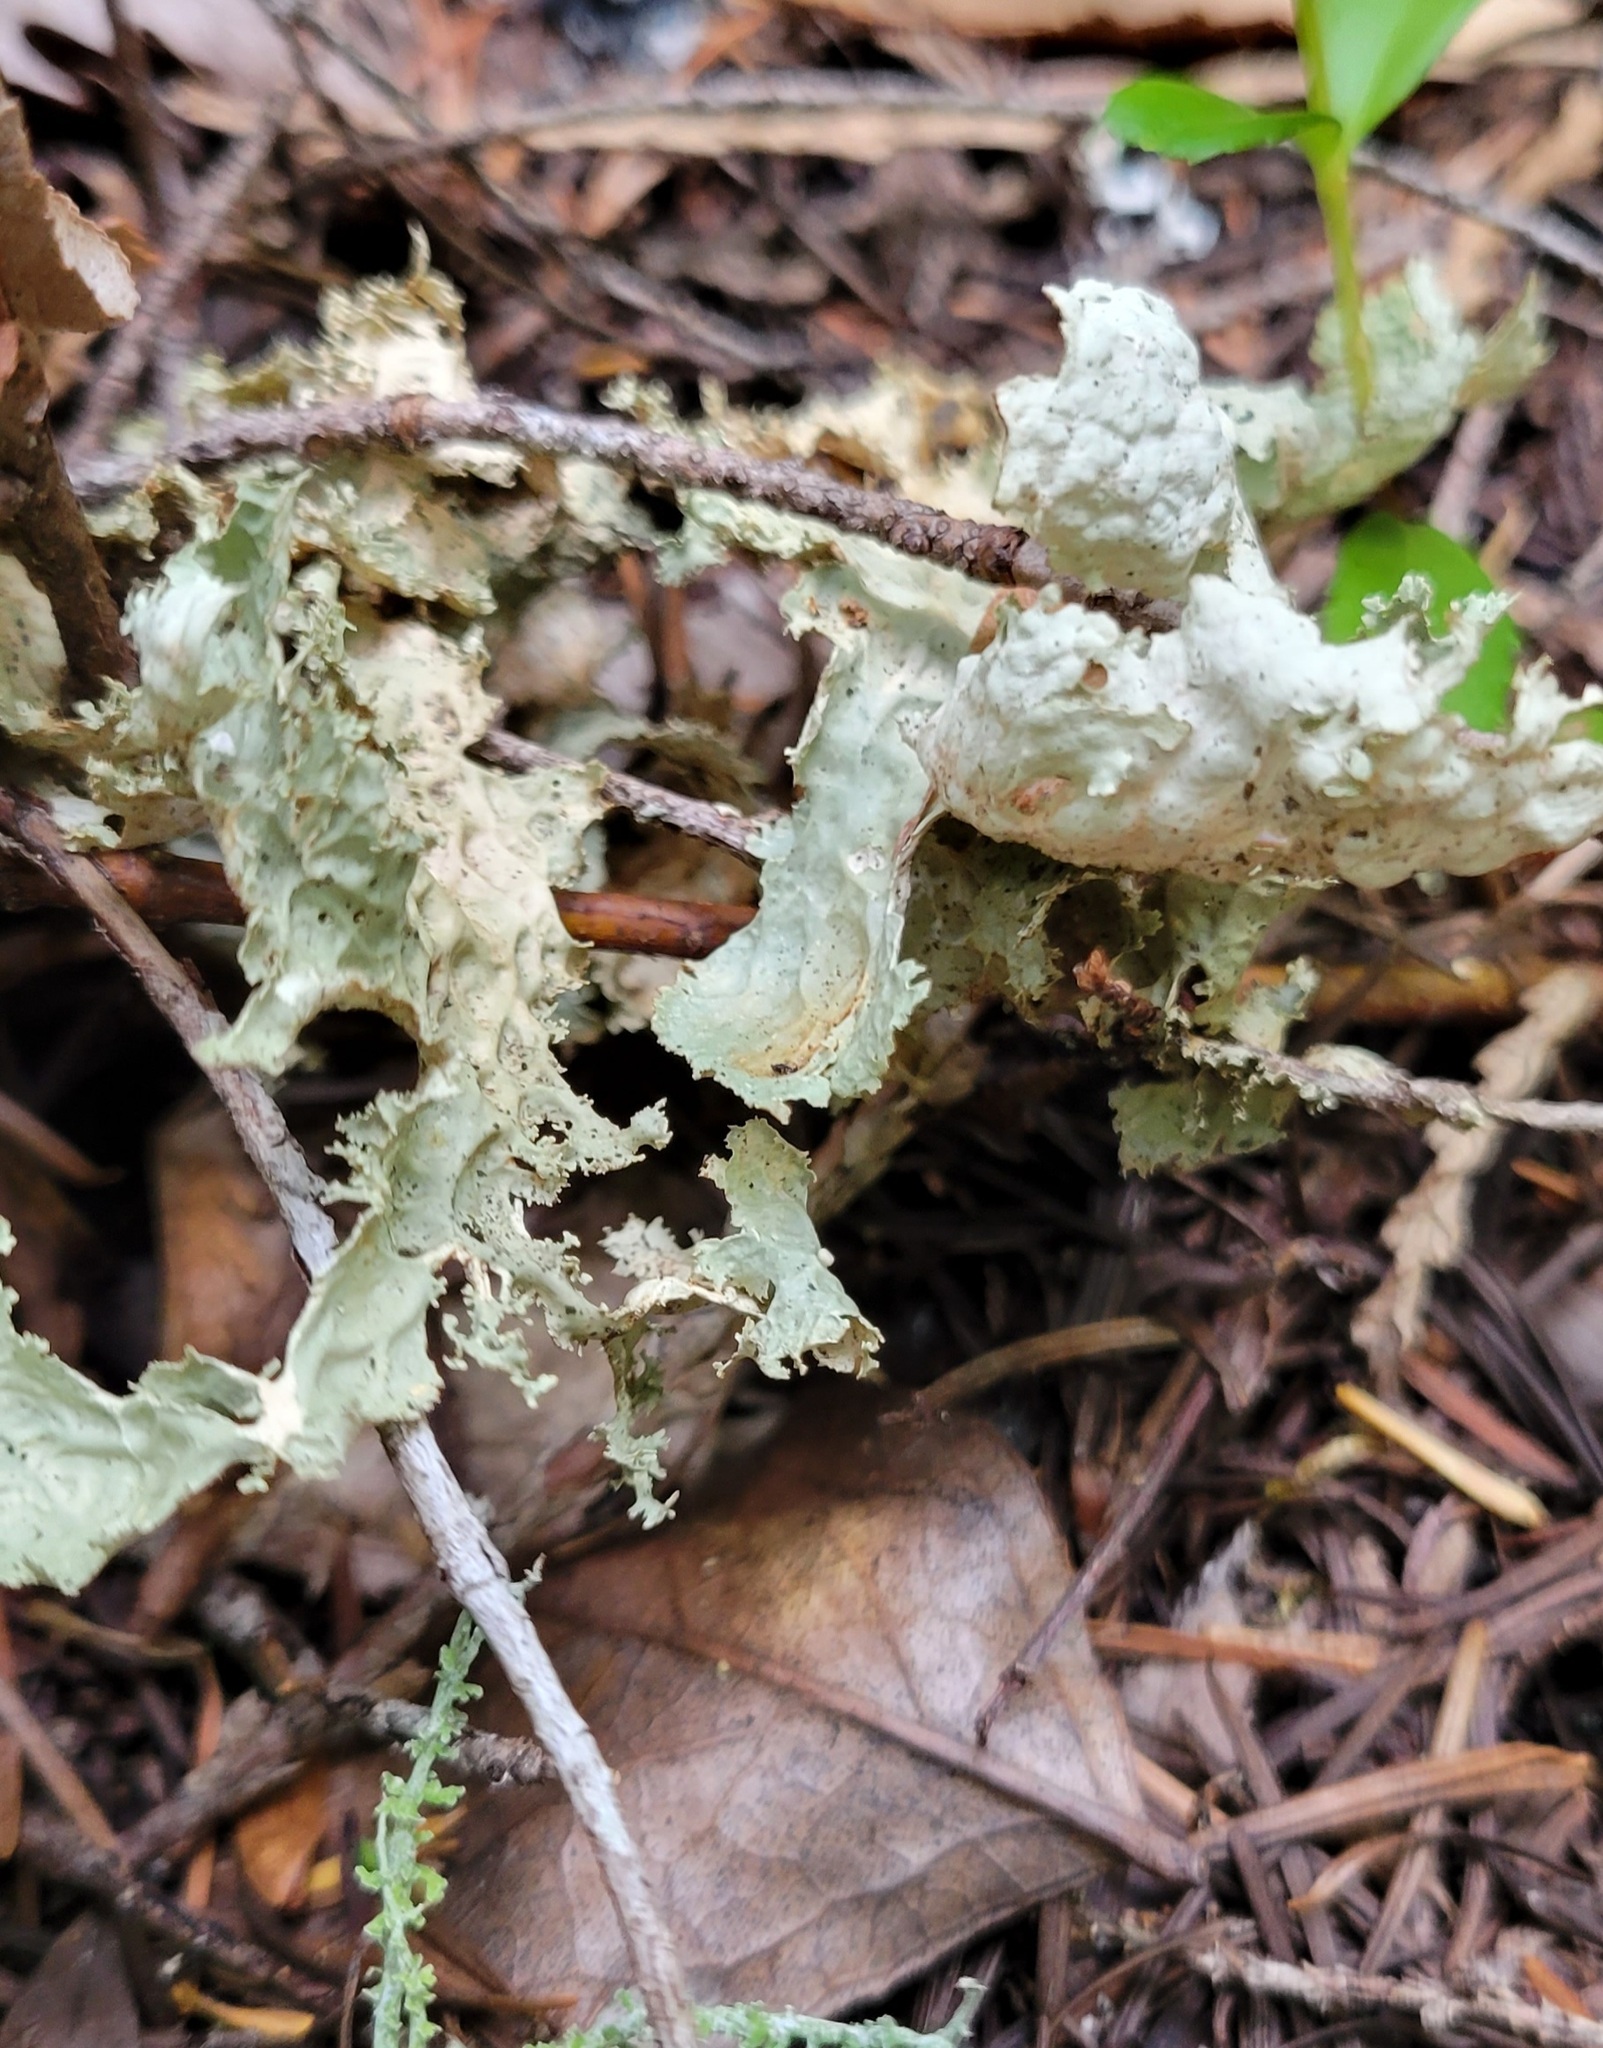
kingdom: Fungi
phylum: Ascomycota
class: Lecanoromycetes
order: Peltigerales
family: Lobariaceae
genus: Lobaria
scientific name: Lobaria oregana
